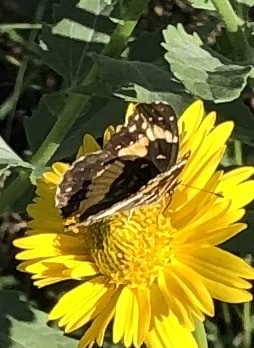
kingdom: Animalia
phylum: Arthropoda
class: Insecta
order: Lepidoptera
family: Nymphalidae
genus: Chlosyne
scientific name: Chlosyne lacinia
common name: Bordered patch
